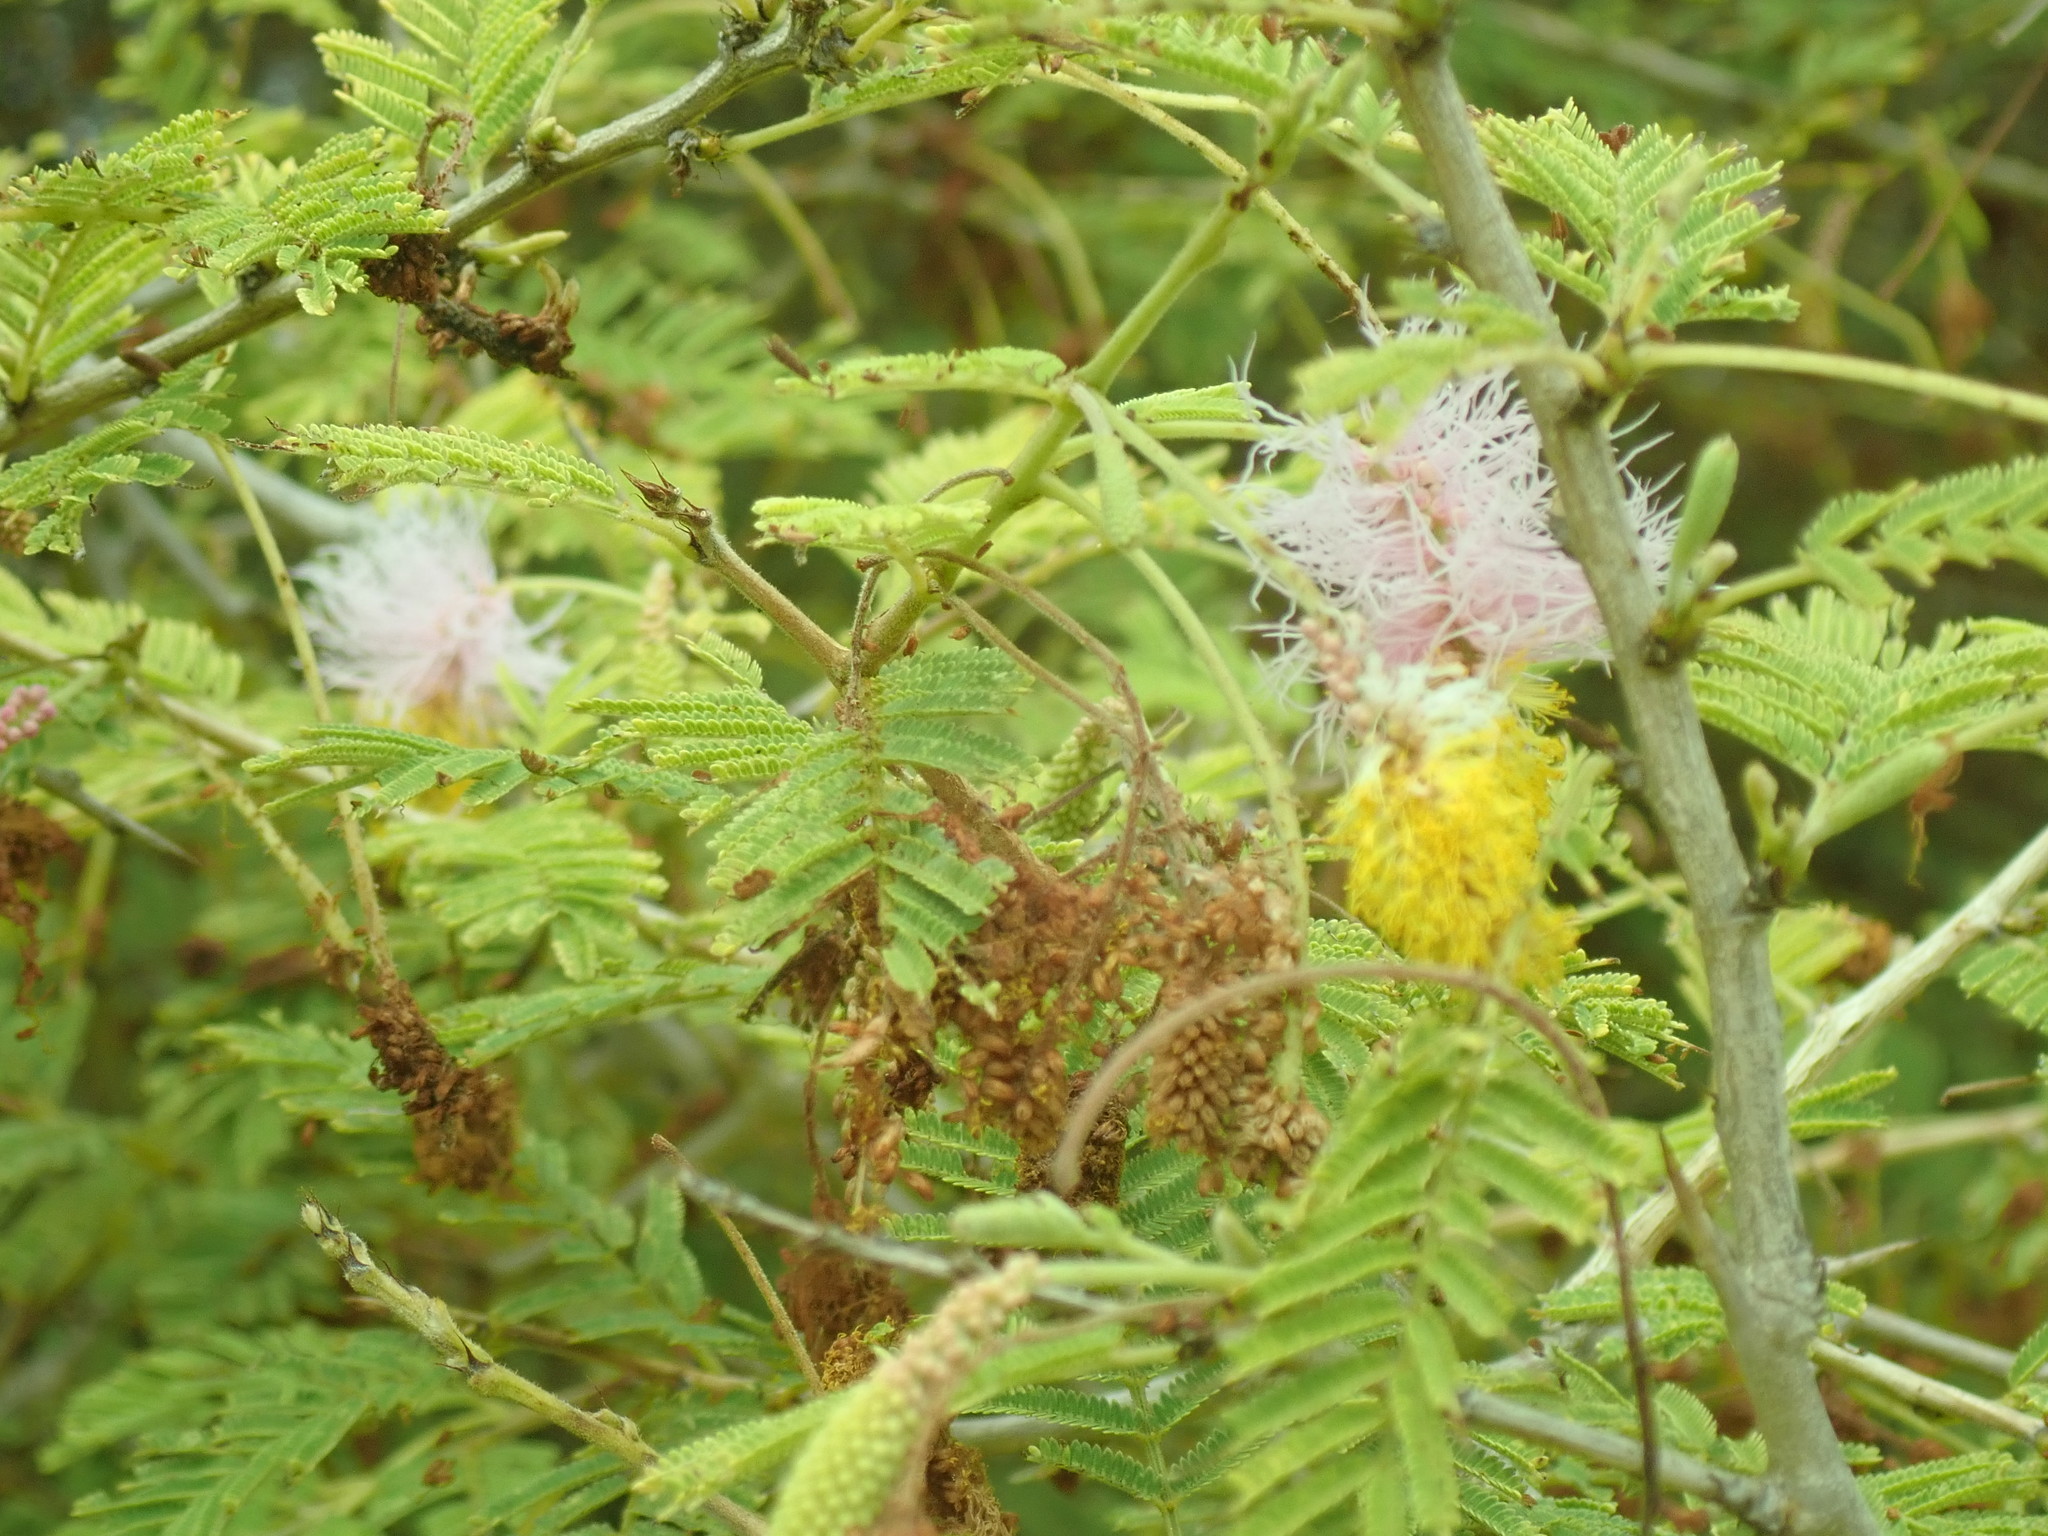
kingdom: Plantae
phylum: Tracheophyta
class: Magnoliopsida
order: Fabales
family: Fabaceae
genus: Dichrostachys
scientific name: Dichrostachys cinerea
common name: Sicklebush
